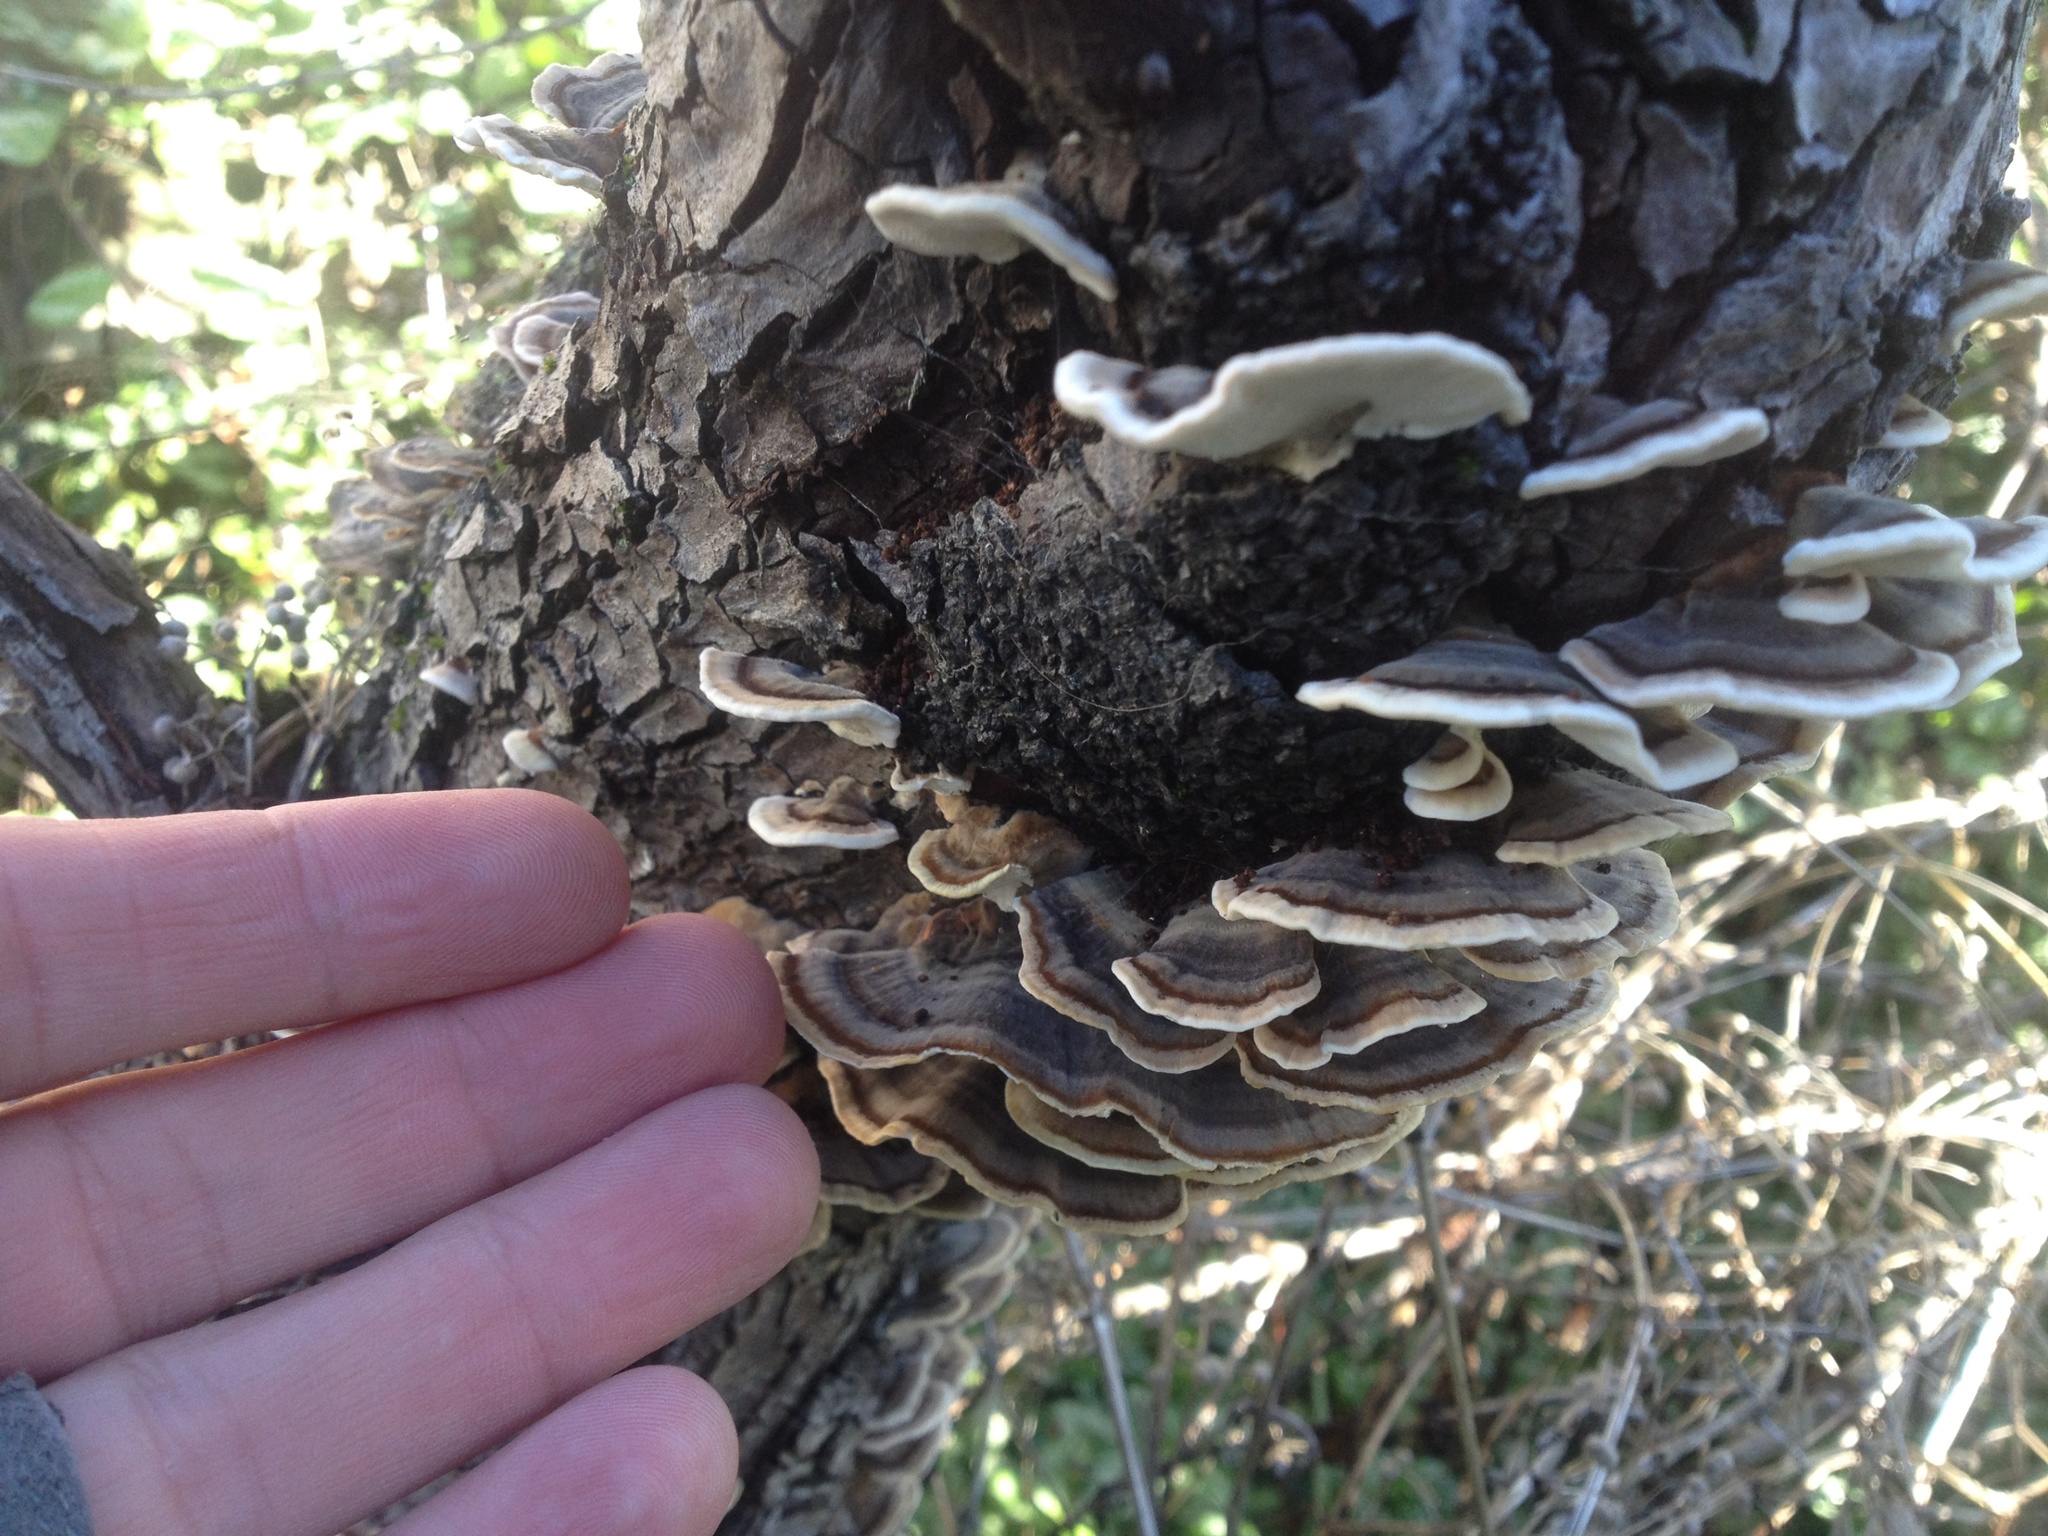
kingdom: Fungi
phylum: Basidiomycota
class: Agaricomycetes
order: Polyporales
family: Polyporaceae
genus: Trametes
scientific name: Trametes versicolor
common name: Turkeytail
